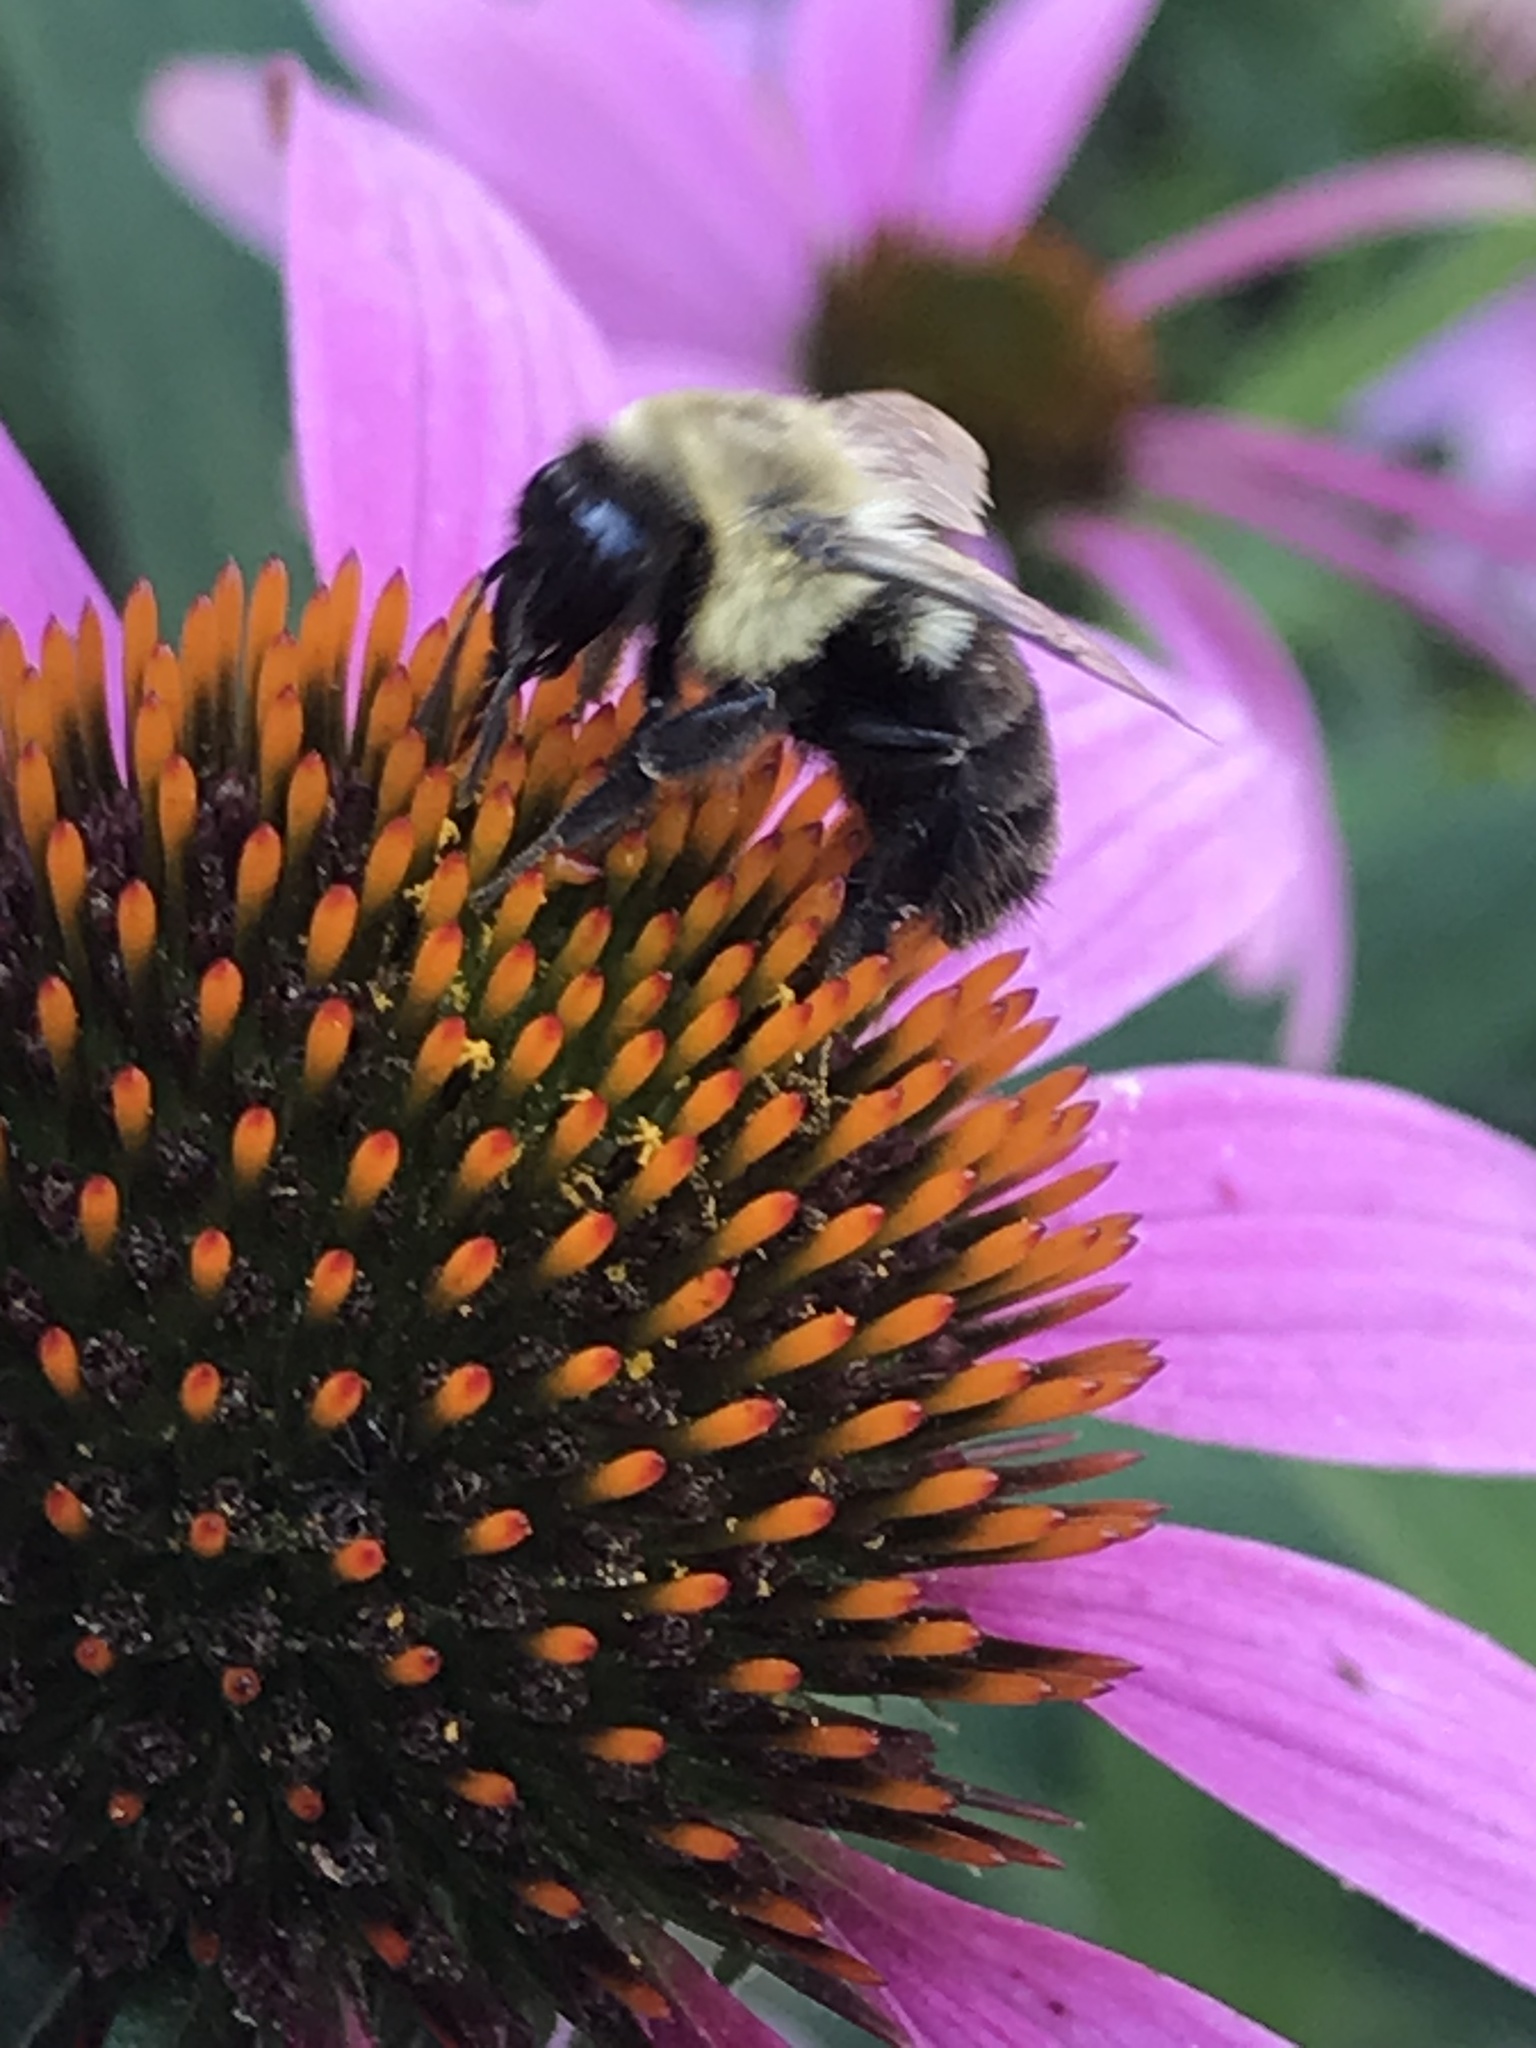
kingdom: Animalia
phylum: Arthropoda
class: Insecta
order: Hymenoptera
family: Apidae
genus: Bombus
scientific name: Bombus impatiens
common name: Common eastern bumble bee
